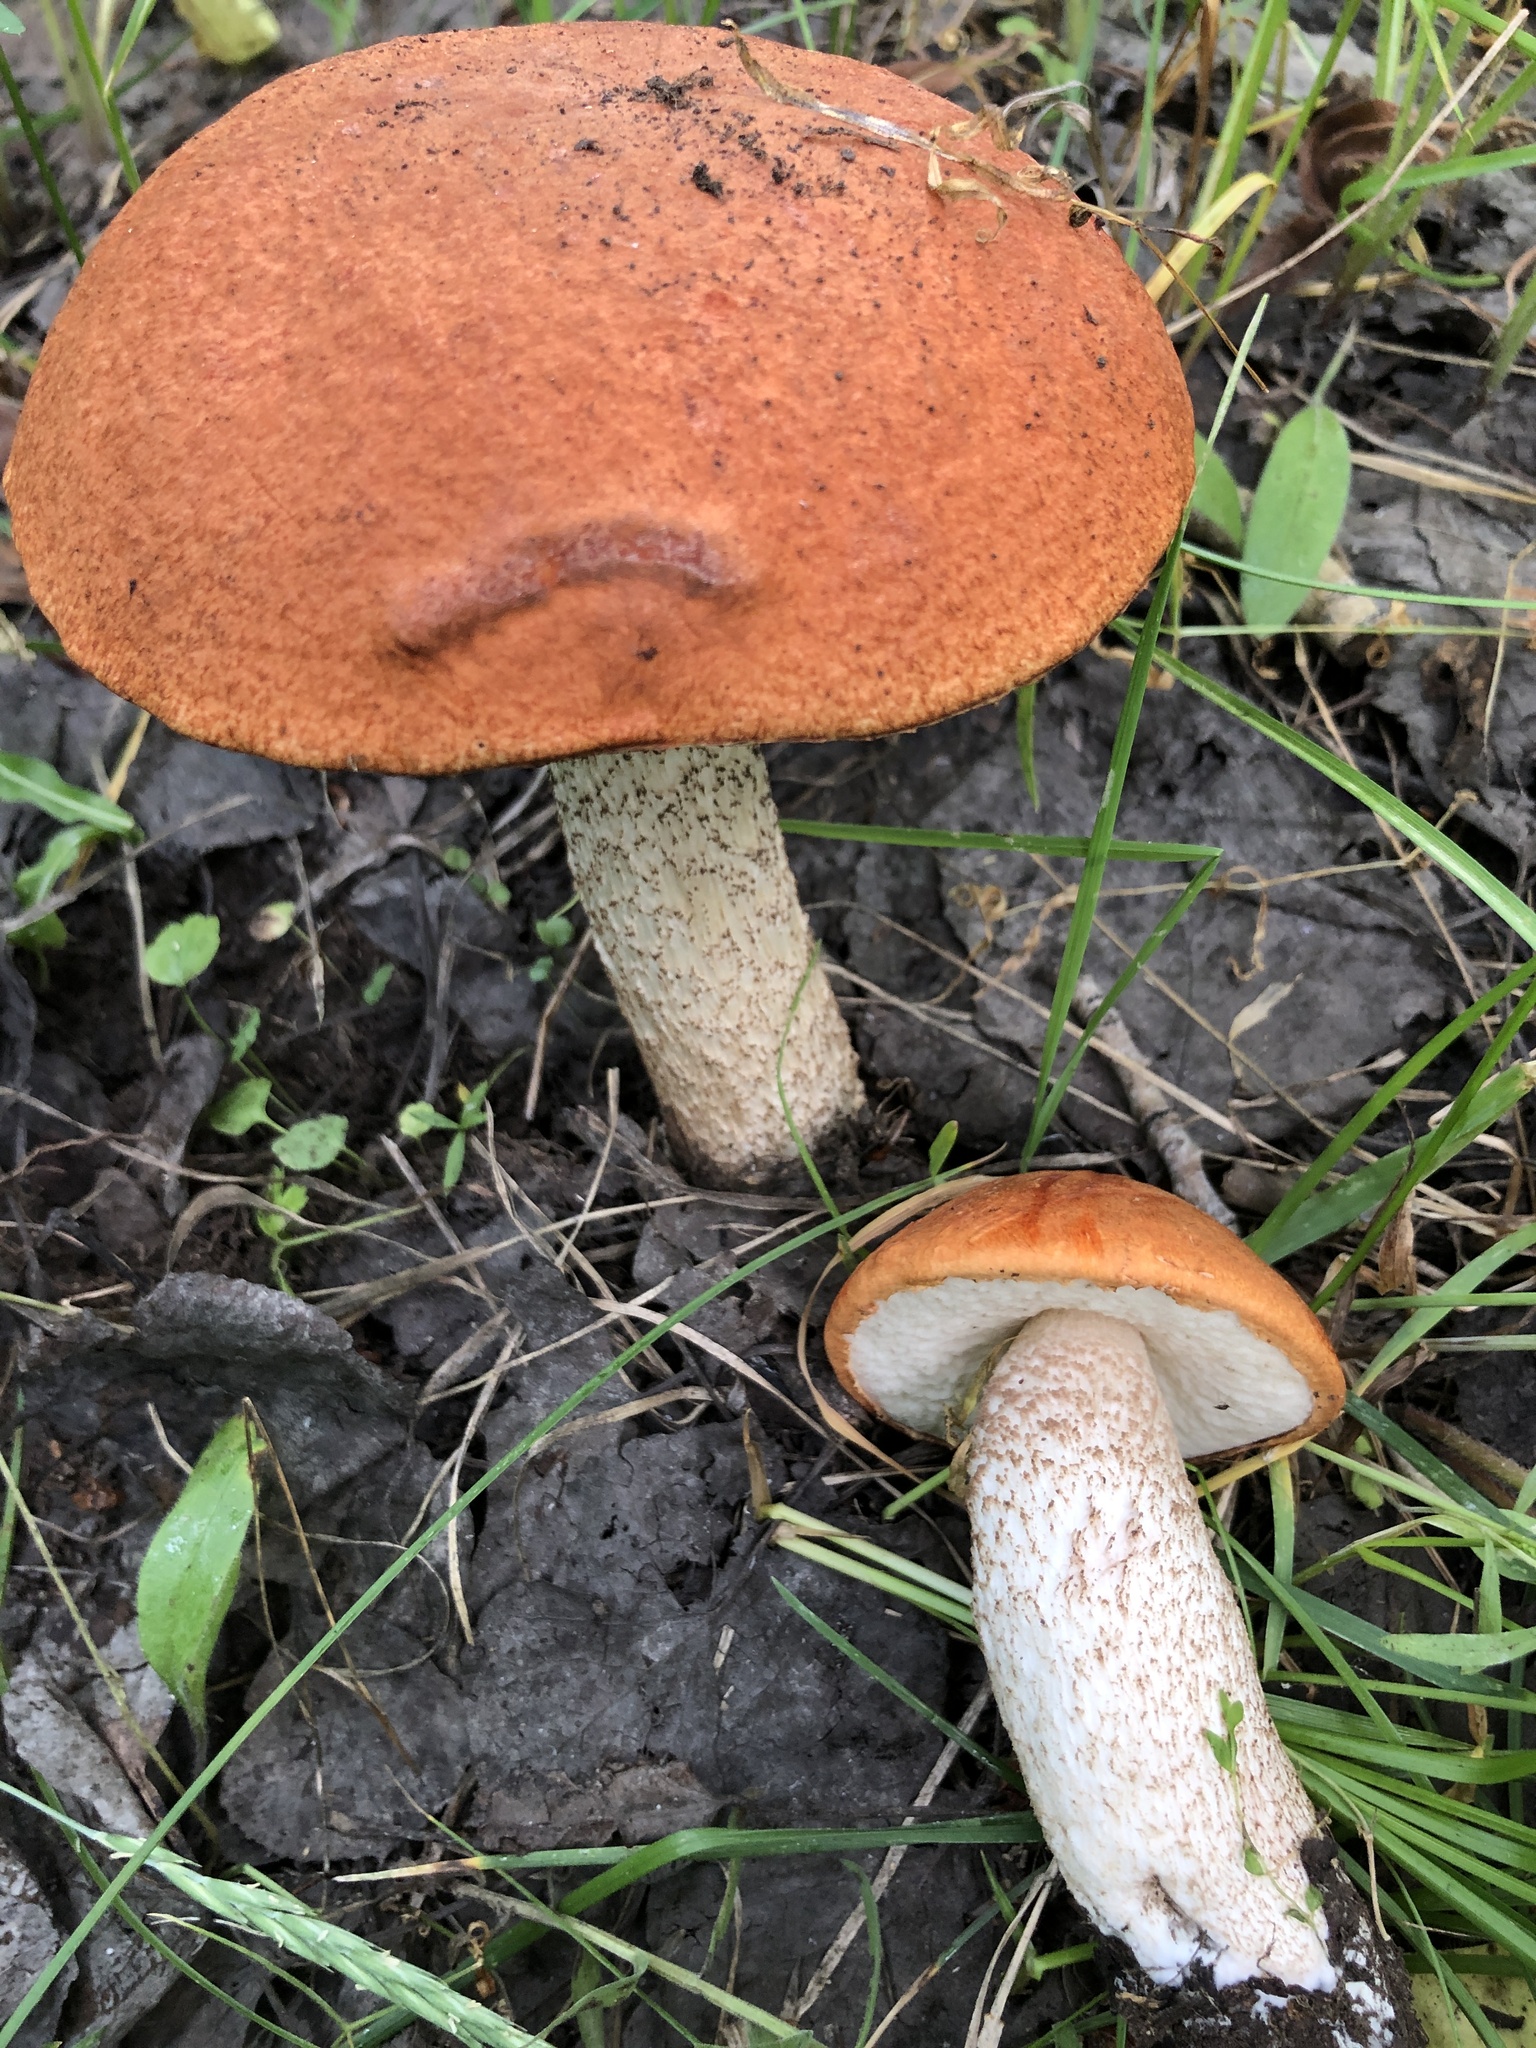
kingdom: Fungi
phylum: Basidiomycota
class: Agaricomycetes
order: Boletales
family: Boletaceae
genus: Leccinum
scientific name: Leccinum insigne
